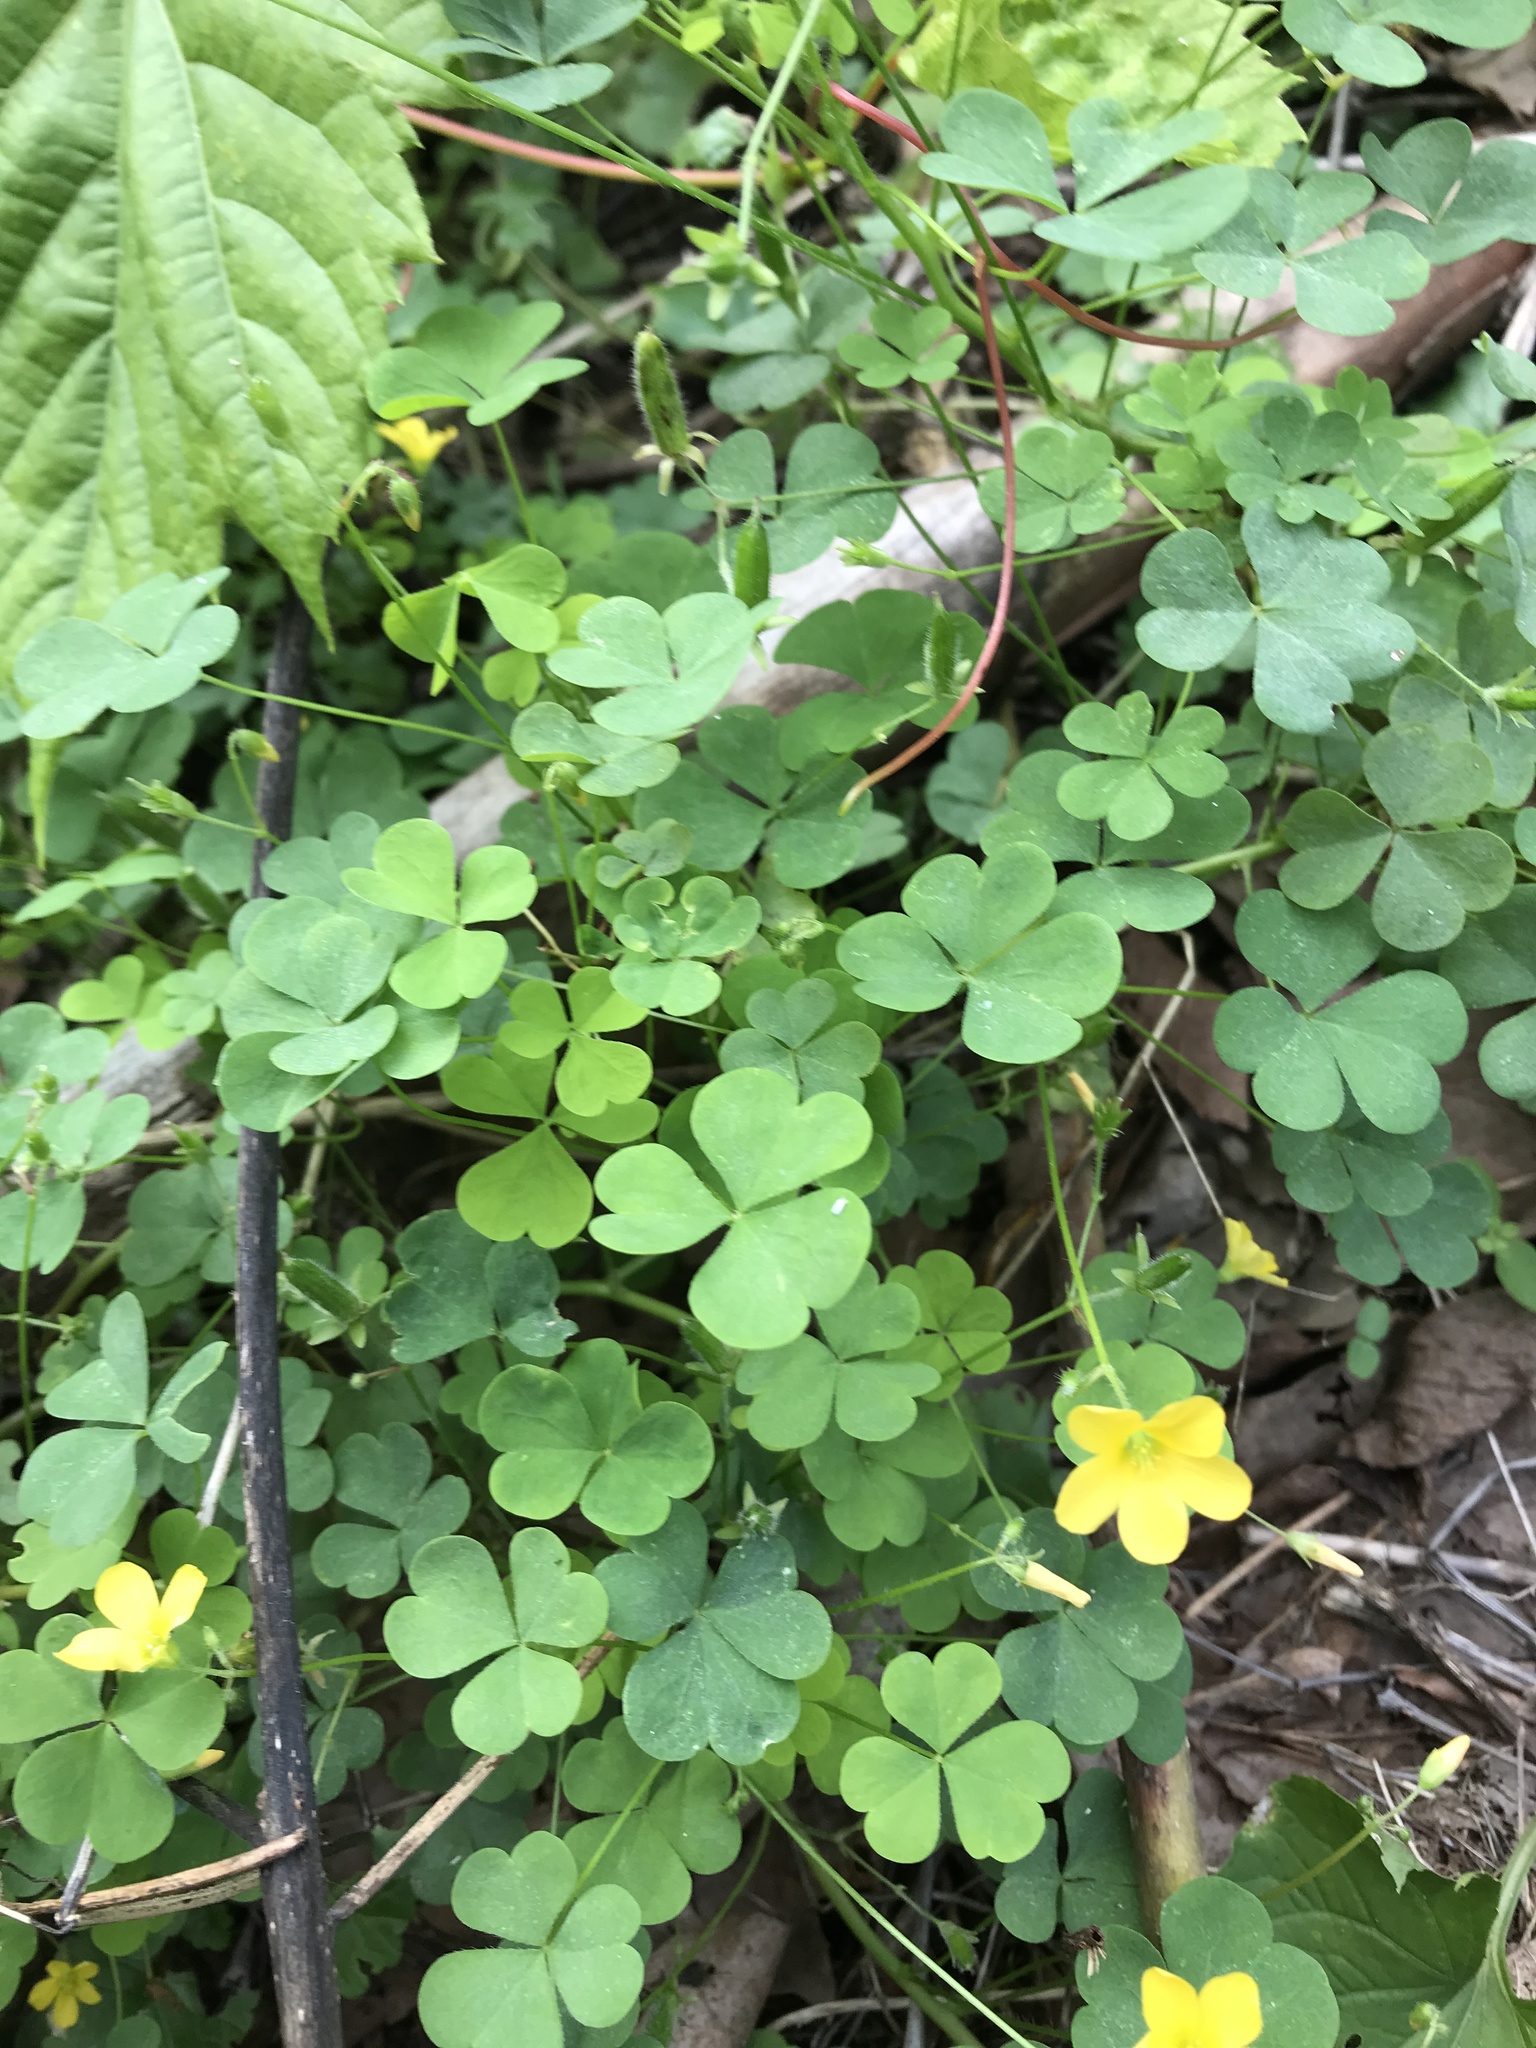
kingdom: Plantae
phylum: Tracheophyta
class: Magnoliopsida
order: Oxalidales
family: Oxalidaceae
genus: Oxalis
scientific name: Oxalis stricta
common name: Upright yellow-sorrel
